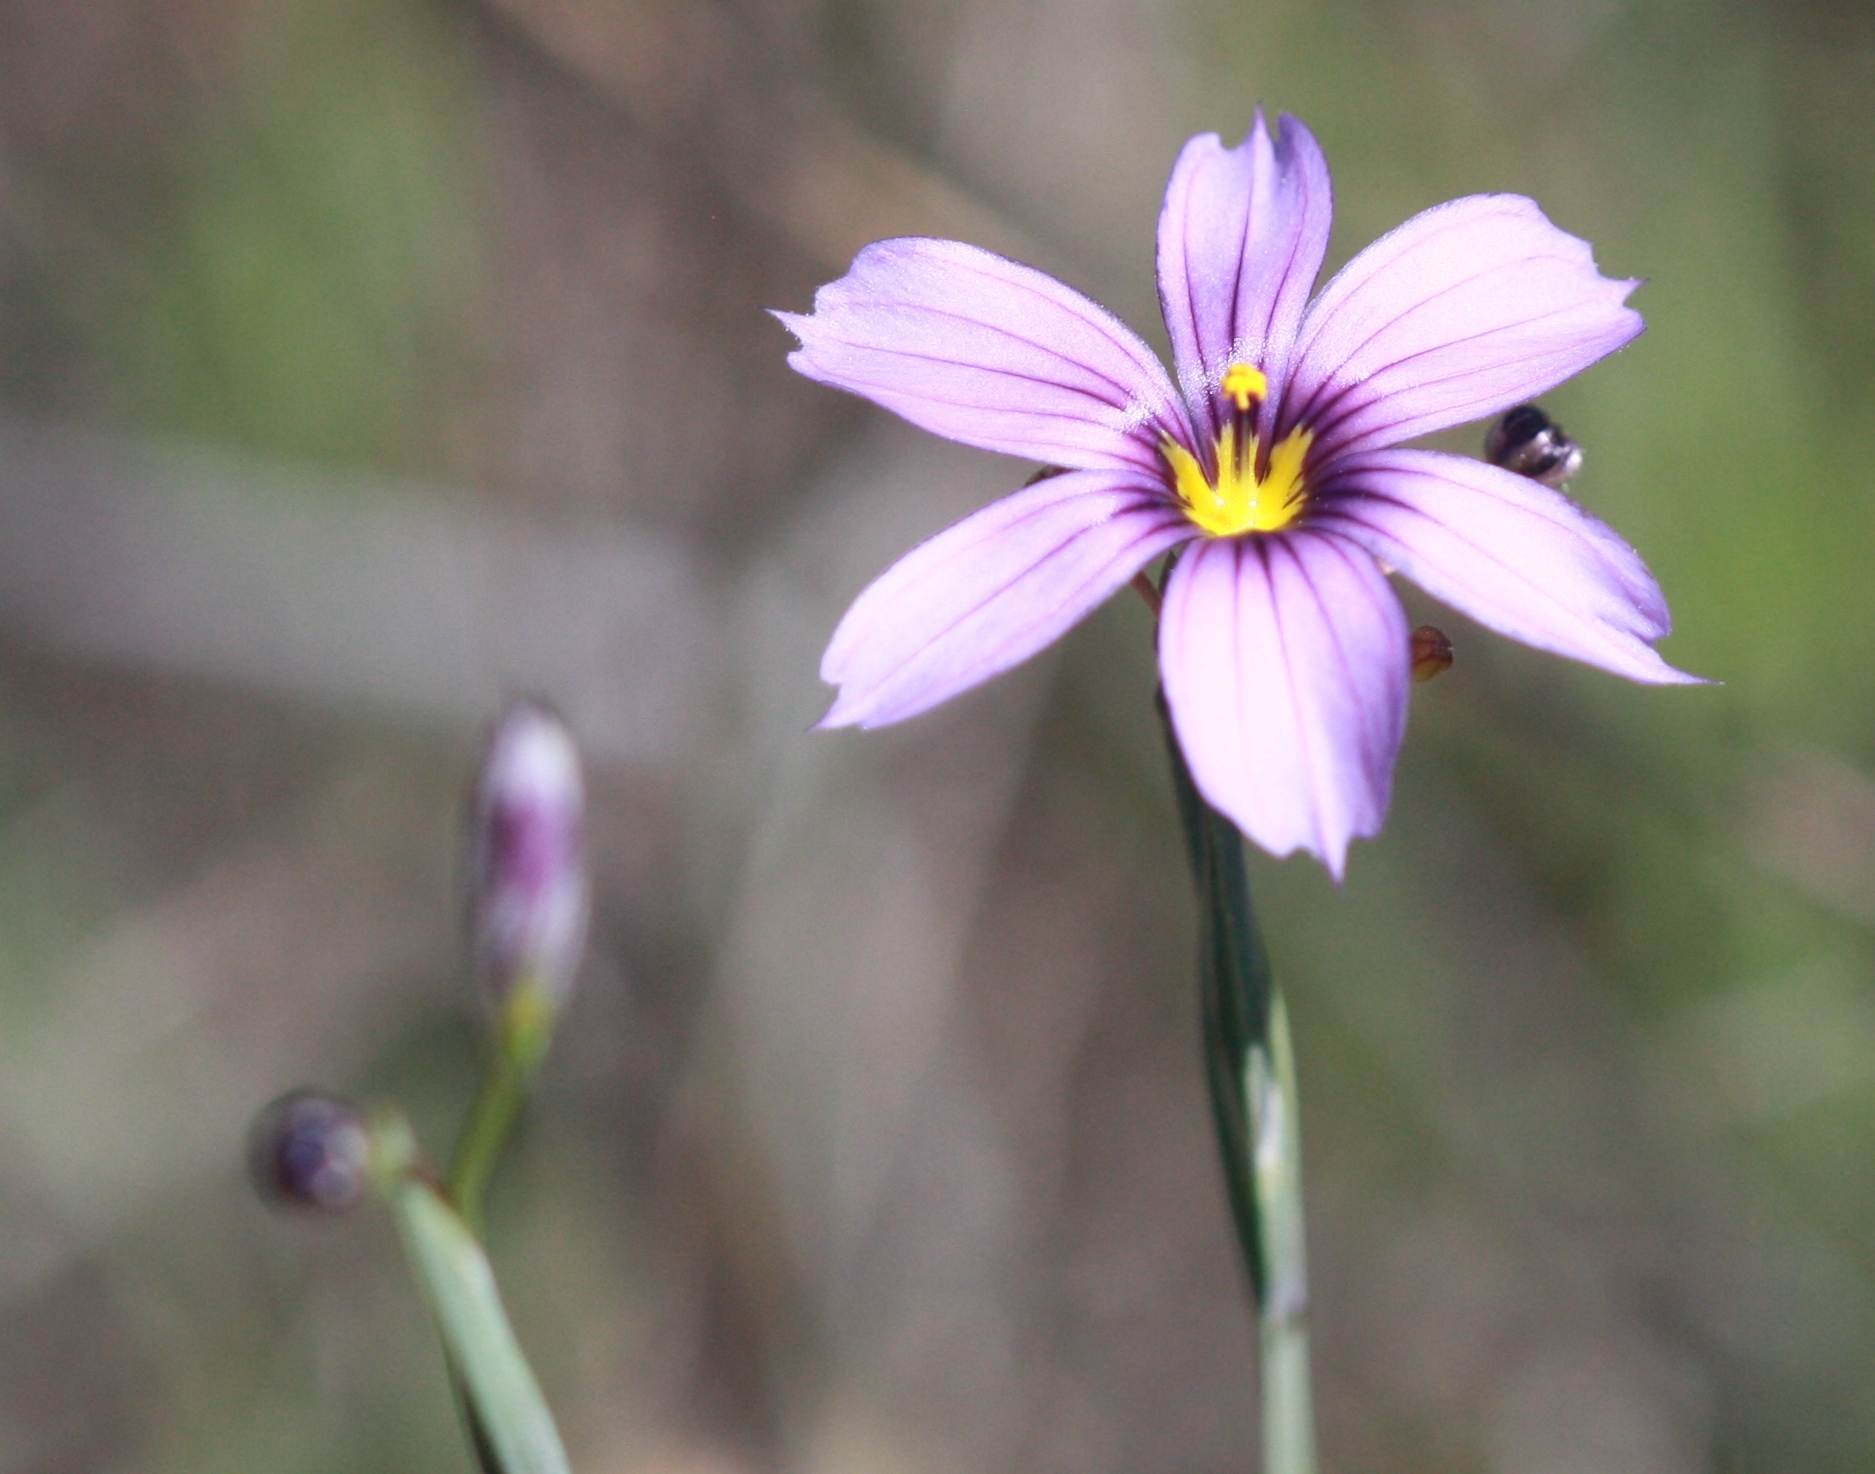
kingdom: Plantae
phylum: Tracheophyta
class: Liliopsida
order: Asparagales
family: Iridaceae
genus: Sisyrinchium
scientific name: Sisyrinchium bellum
